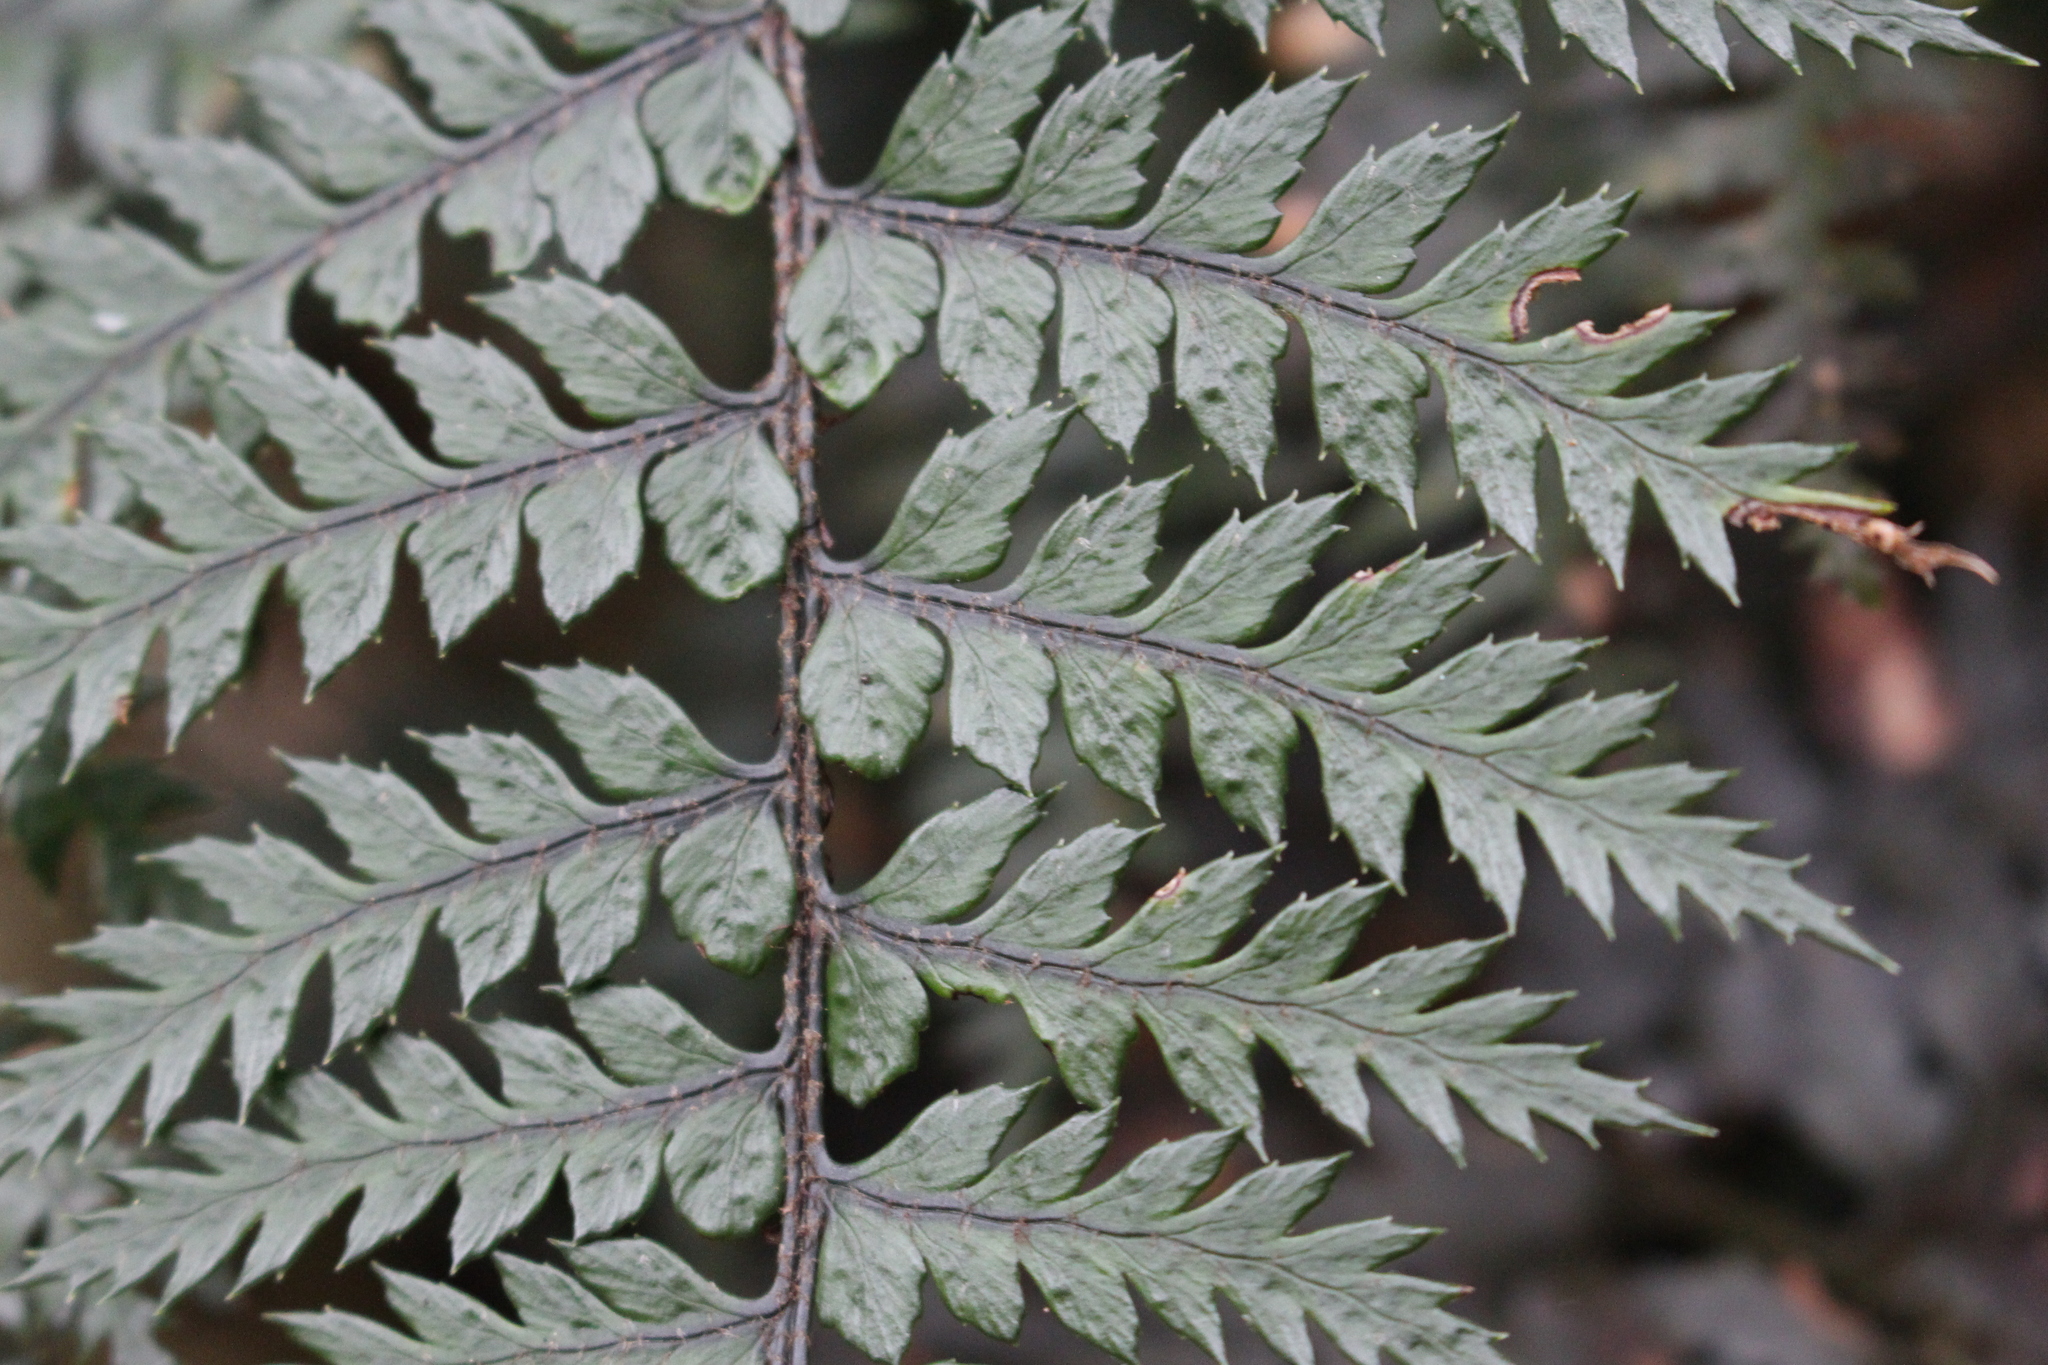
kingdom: Plantae
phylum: Tracheophyta
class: Polypodiopsida
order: Polypodiales
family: Dryopteridaceae
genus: Polystichum
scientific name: Polystichum neozelandicum
